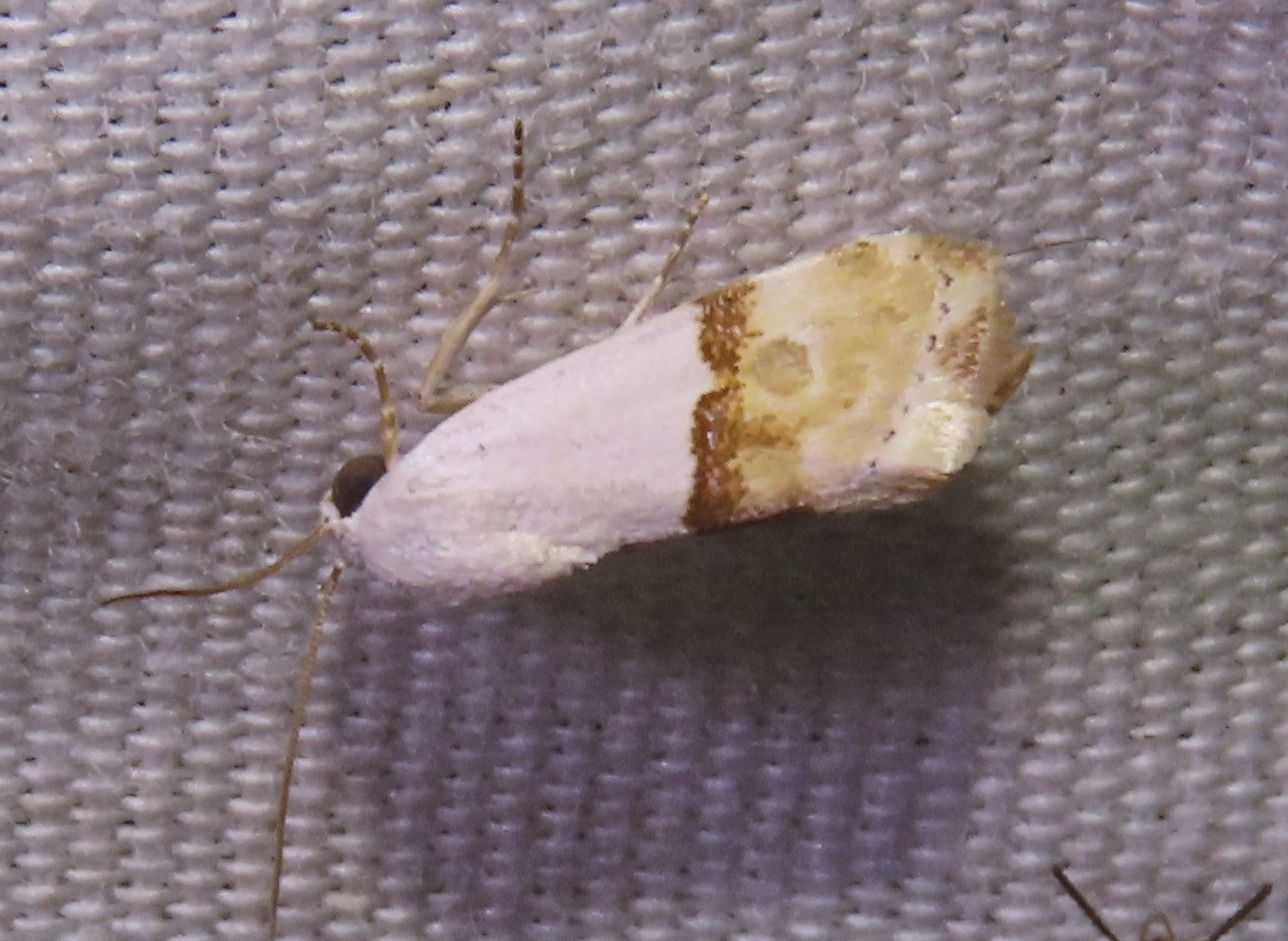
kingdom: Animalia
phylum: Arthropoda
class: Insecta
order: Lepidoptera
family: Noctuidae
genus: Ponometia
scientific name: Ponometia elegantula
